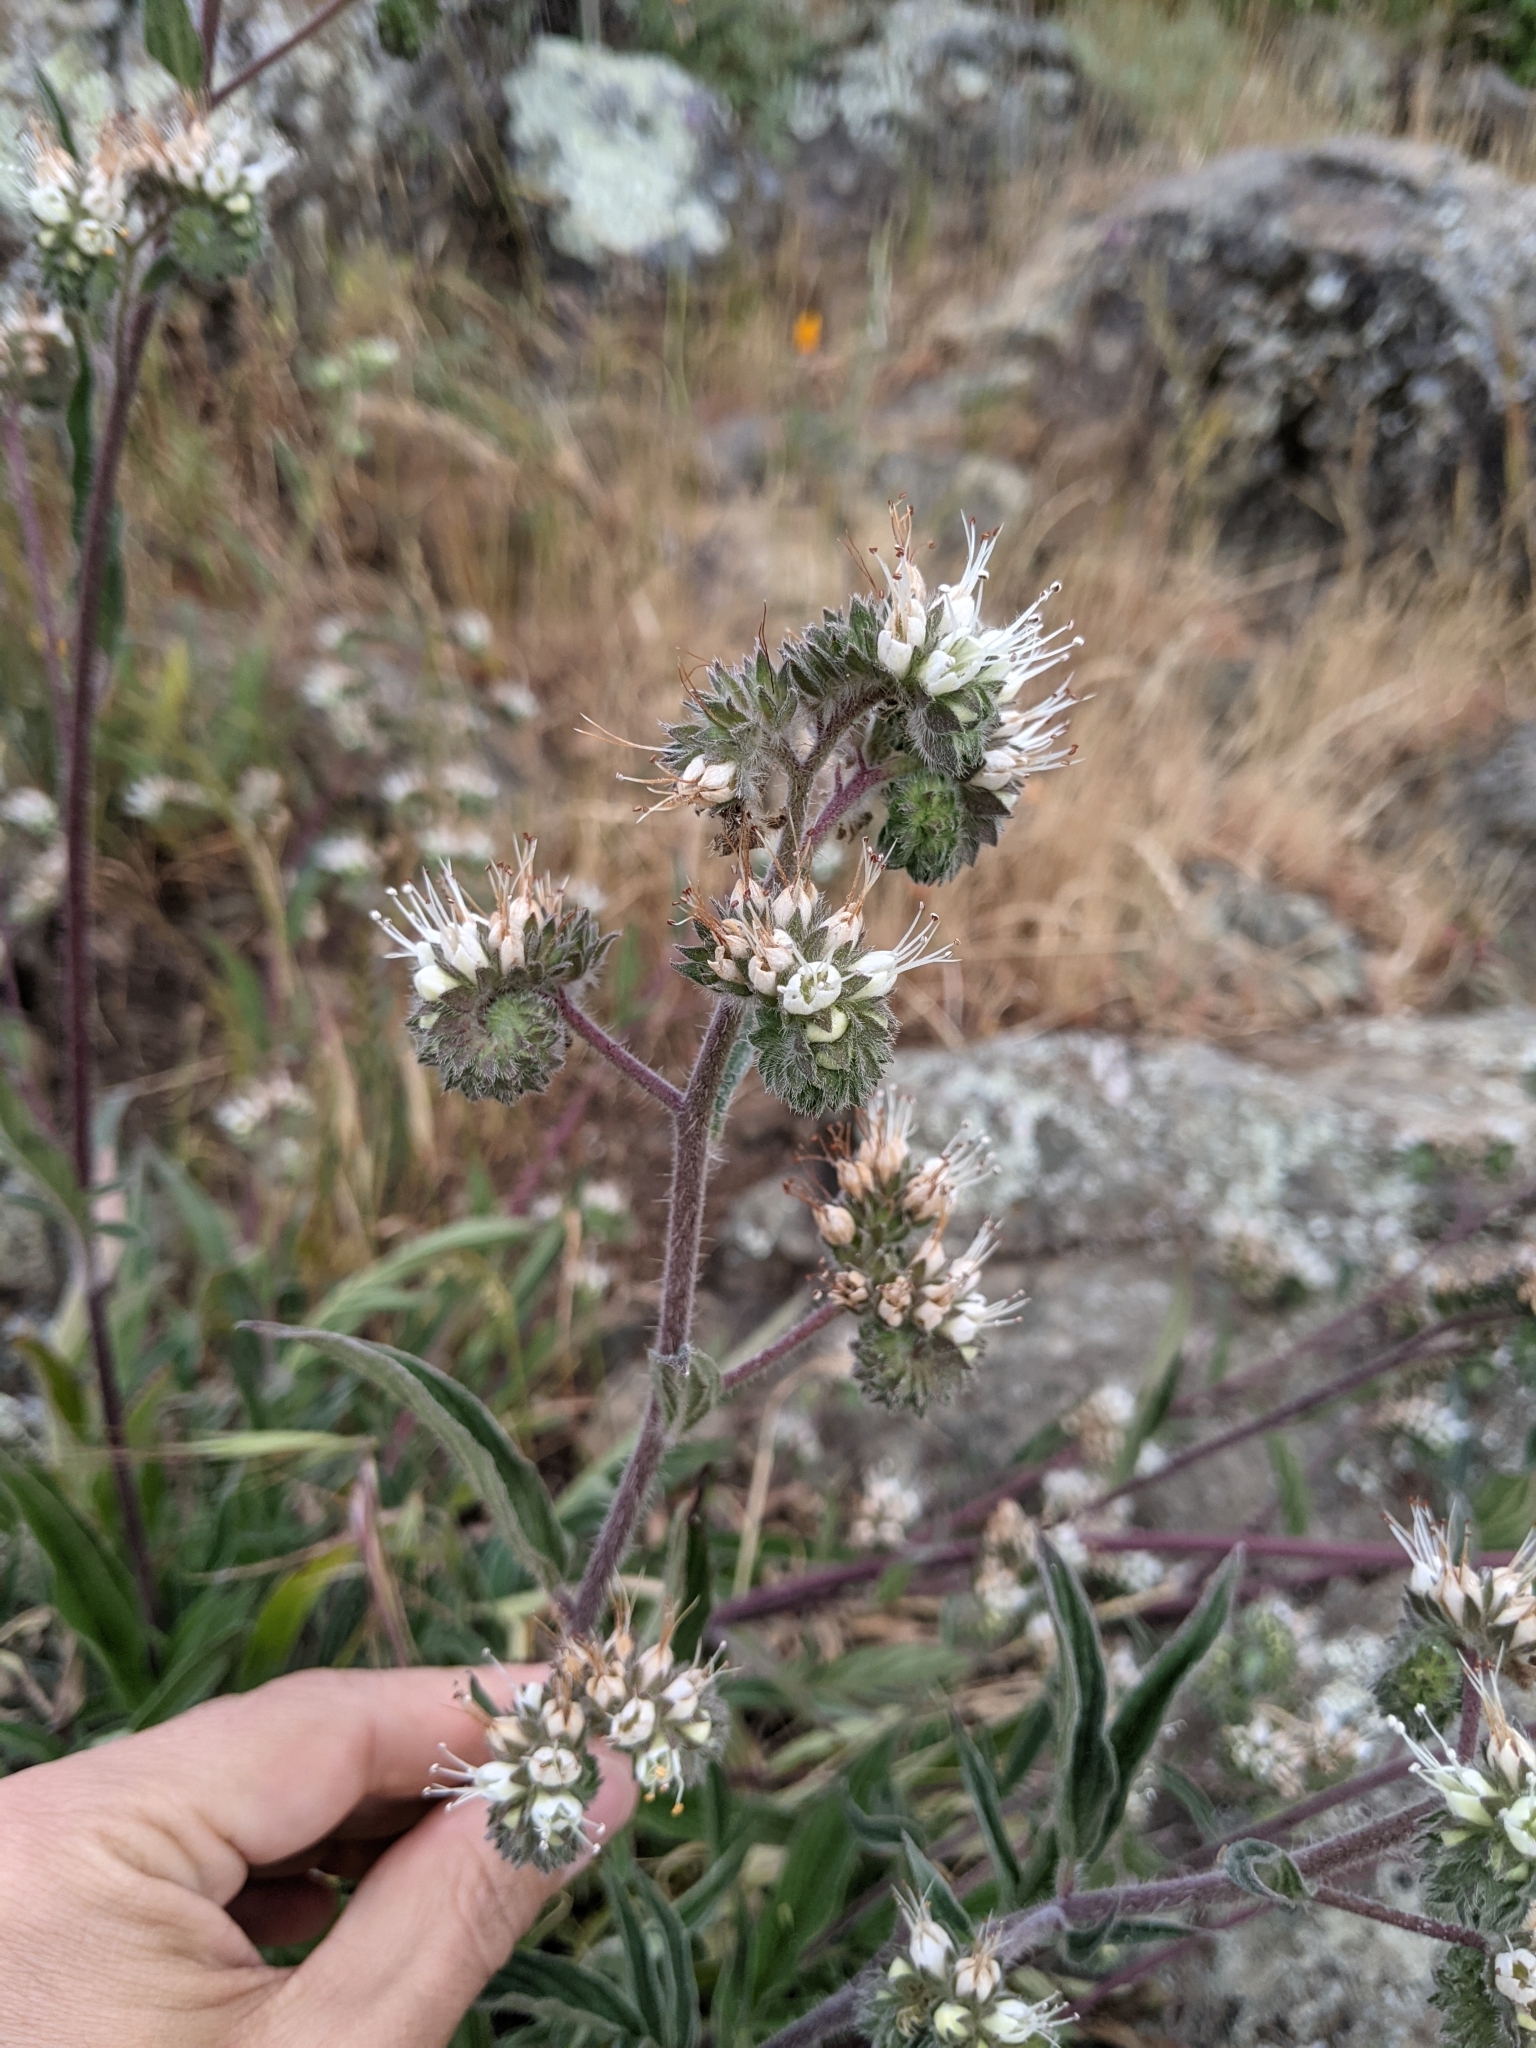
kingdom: Plantae
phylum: Tracheophyta
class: Magnoliopsida
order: Boraginales
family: Hydrophyllaceae
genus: Phacelia
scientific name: Phacelia imbricata
